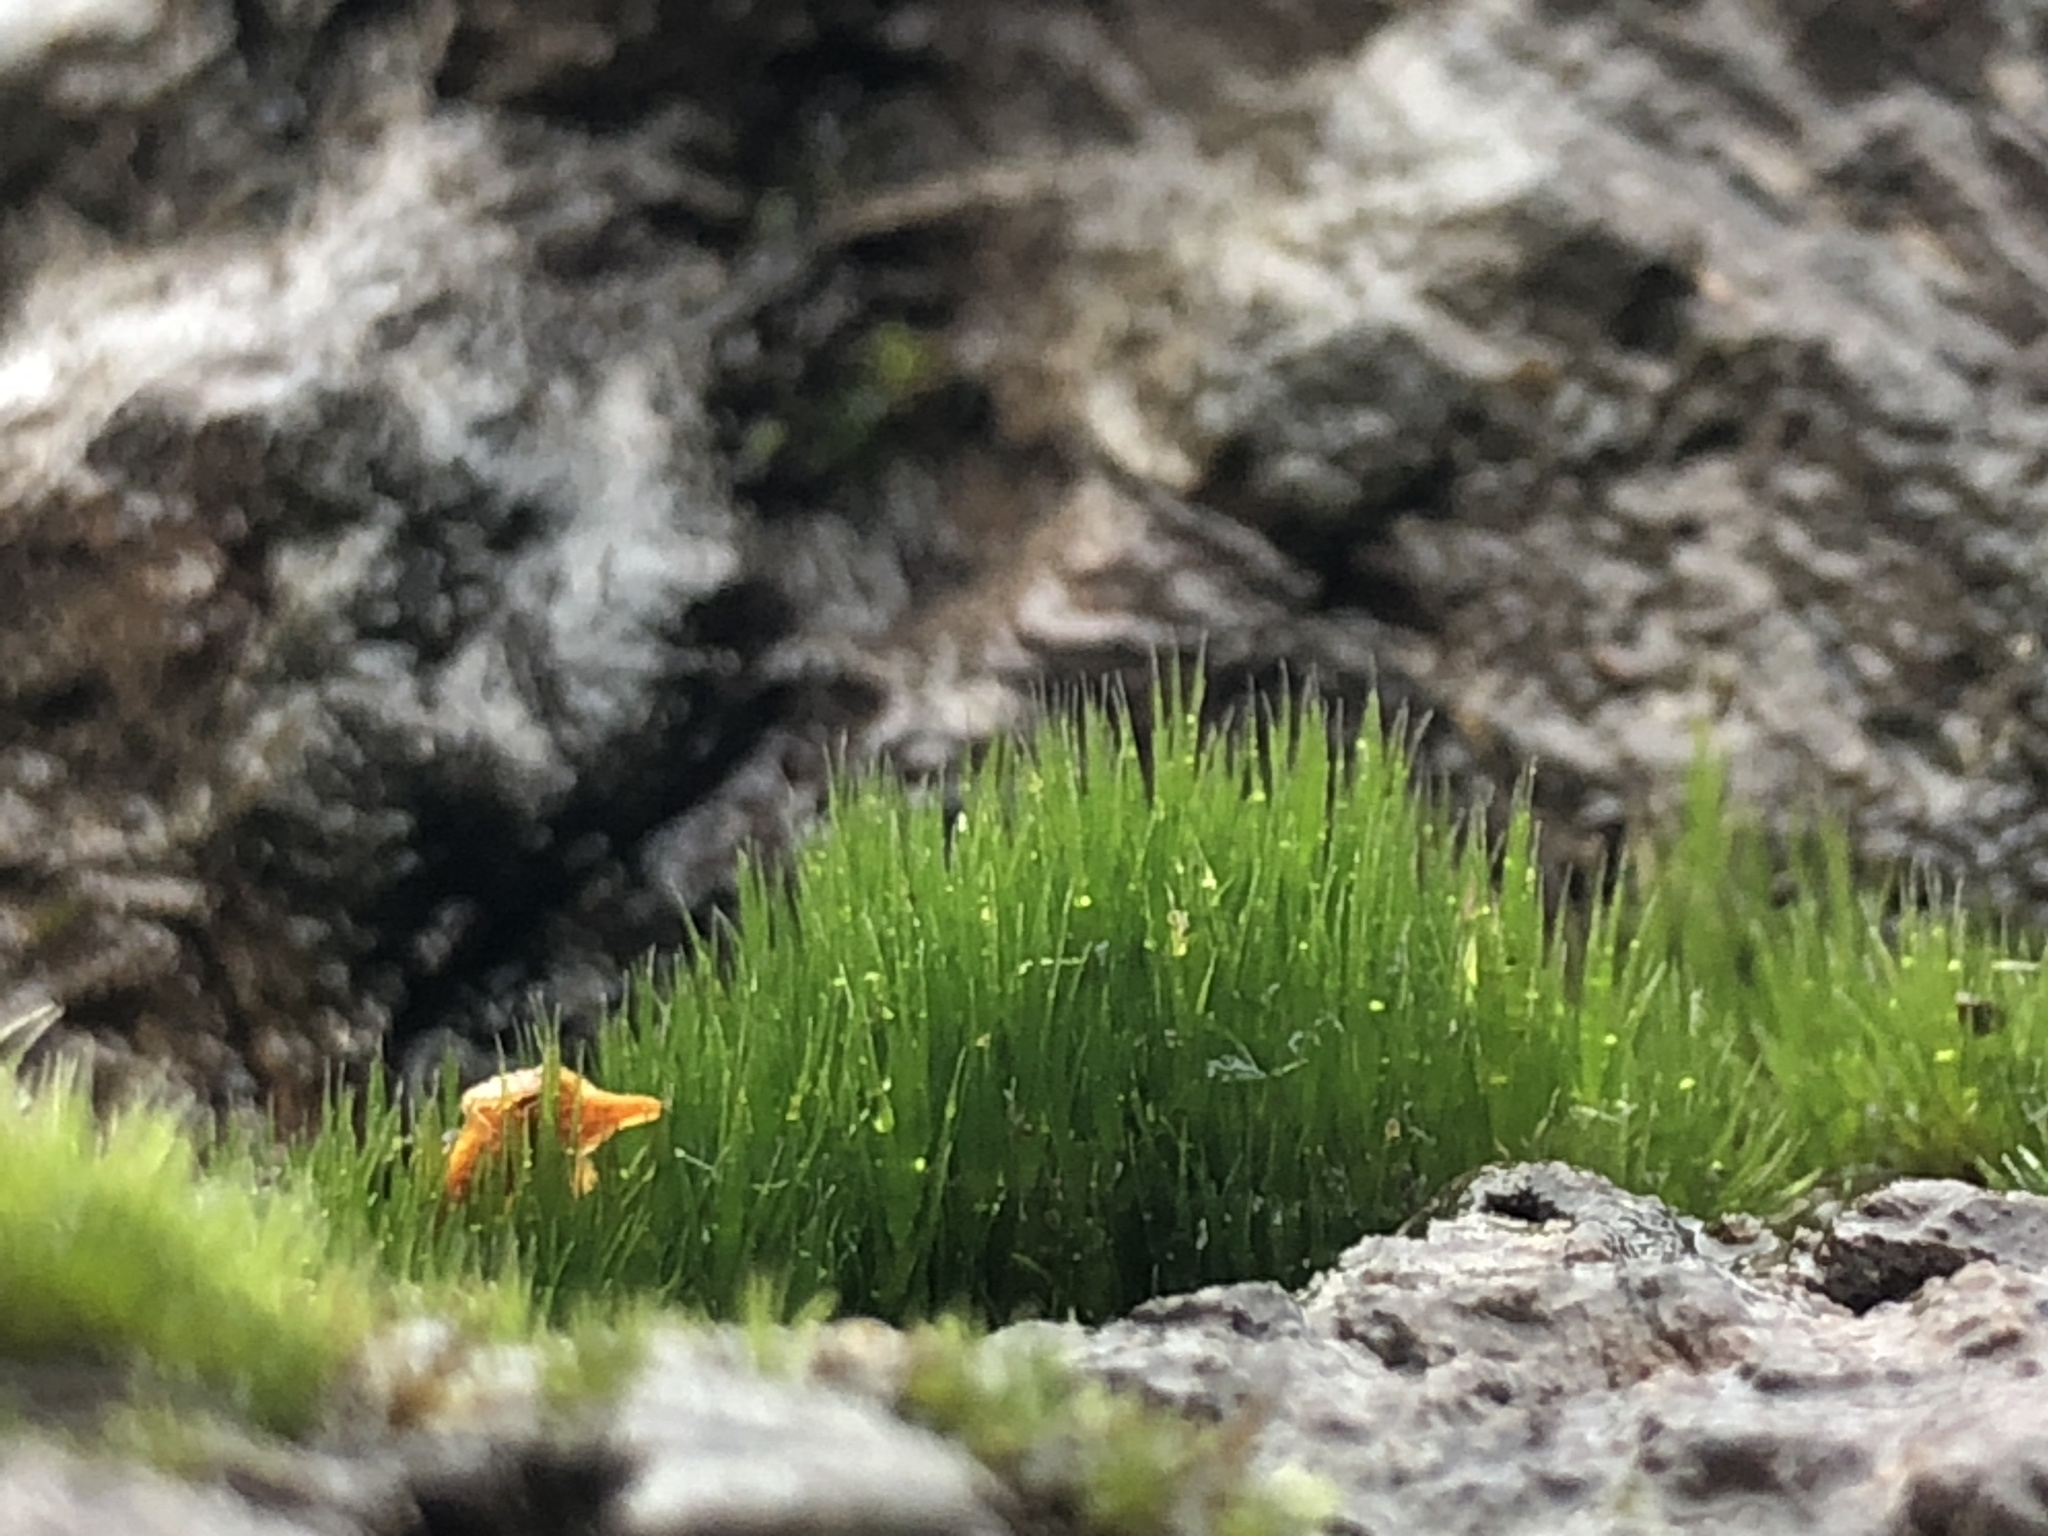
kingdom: Plantae
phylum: Bryophyta
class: Bryopsida
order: Dicranales
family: Leucobryaceae
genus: Campylopus
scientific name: Campylopus introflexus
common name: Heath star moss
